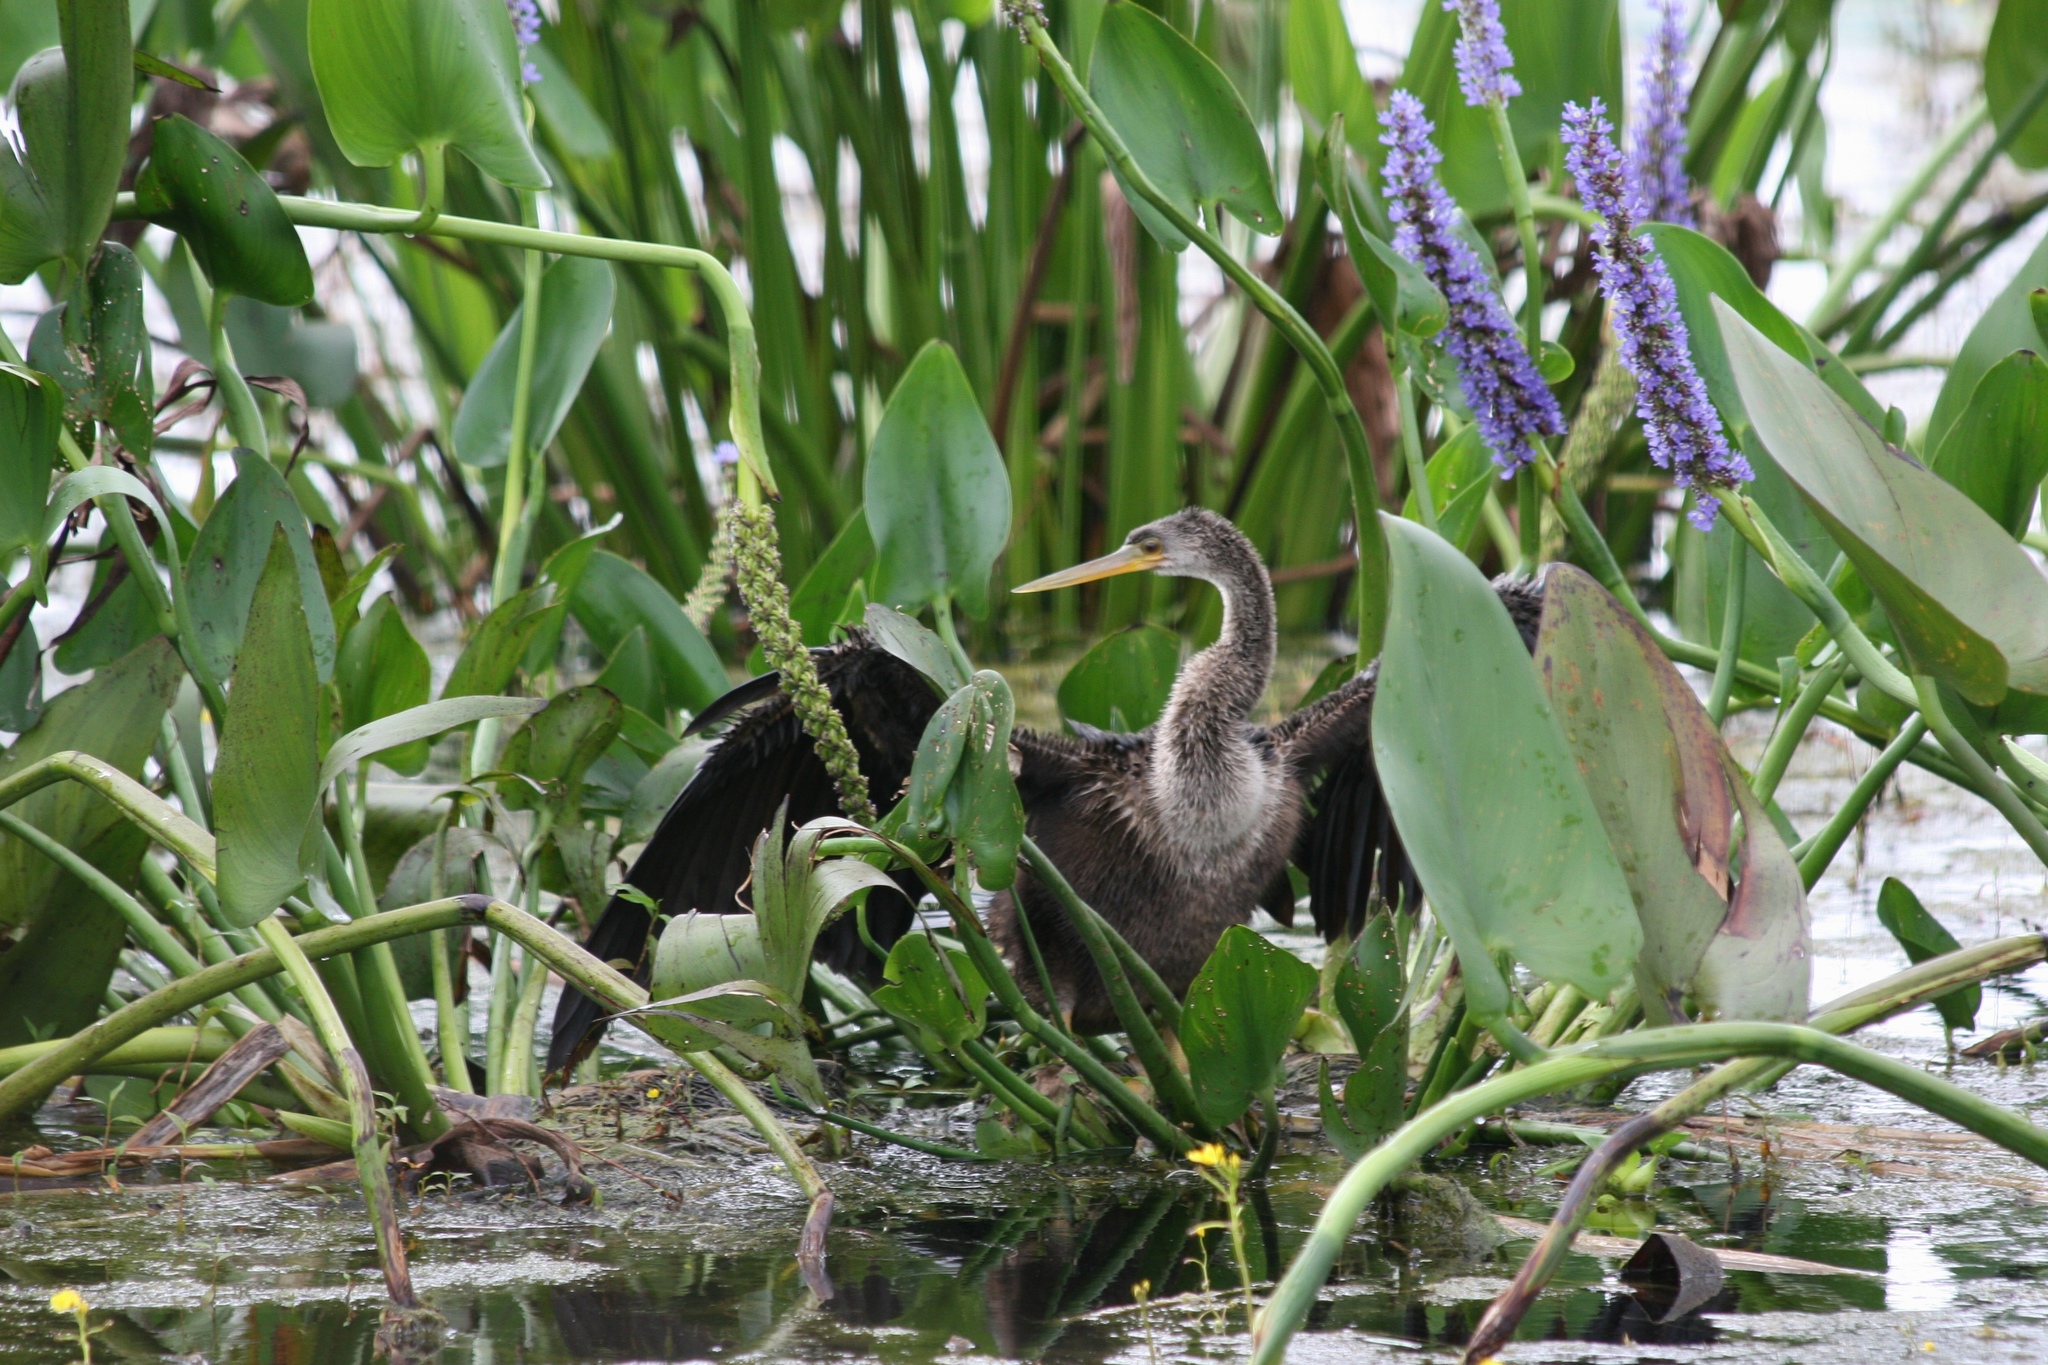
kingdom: Animalia
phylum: Chordata
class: Aves
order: Suliformes
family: Anhingidae
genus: Anhinga
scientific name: Anhinga anhinga
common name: Anhinga
